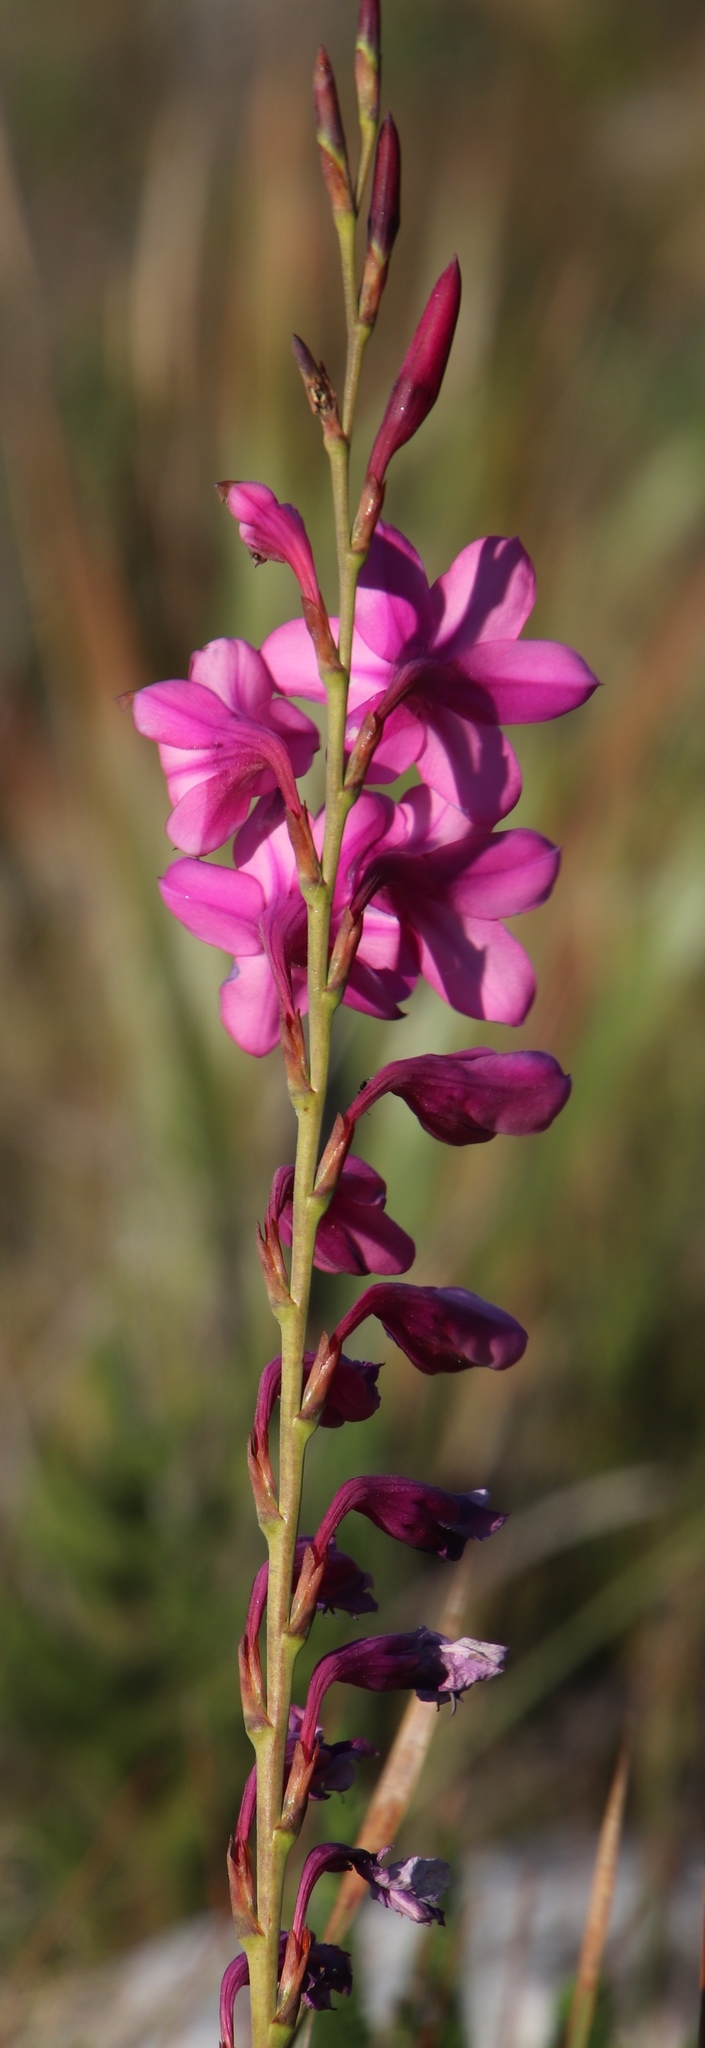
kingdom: Plantae
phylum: Tracheophyta
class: Liliopsida
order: Asparagales
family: Iridaceae
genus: Watsonia
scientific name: Watsonia borbonica
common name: Bugle-lily
